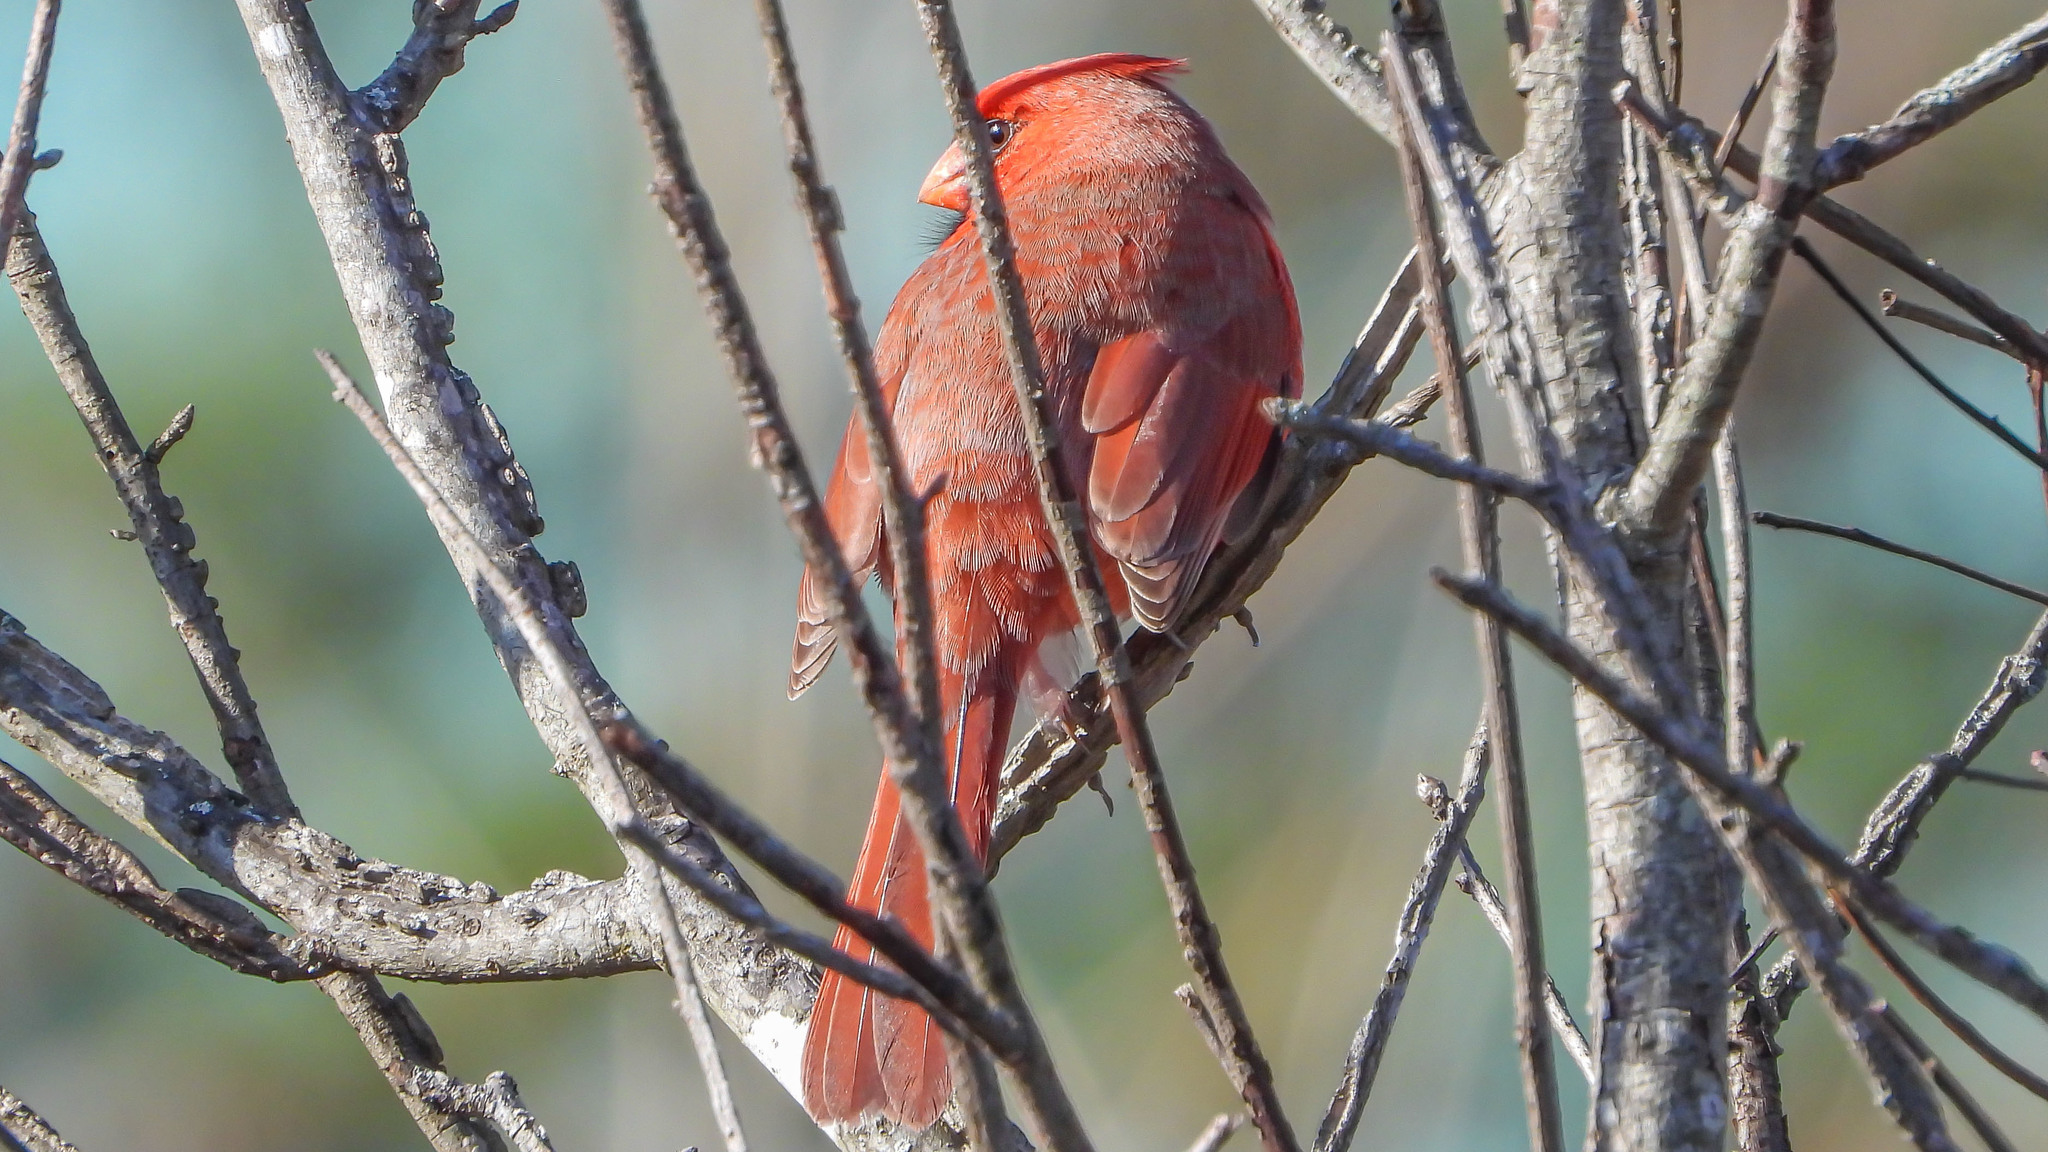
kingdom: Animalia
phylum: Chordata
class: Aves
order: Passeriformes
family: Cardinalidae
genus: Cardinalis
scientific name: Cardinalis cardinalis
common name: Northern cardinal
